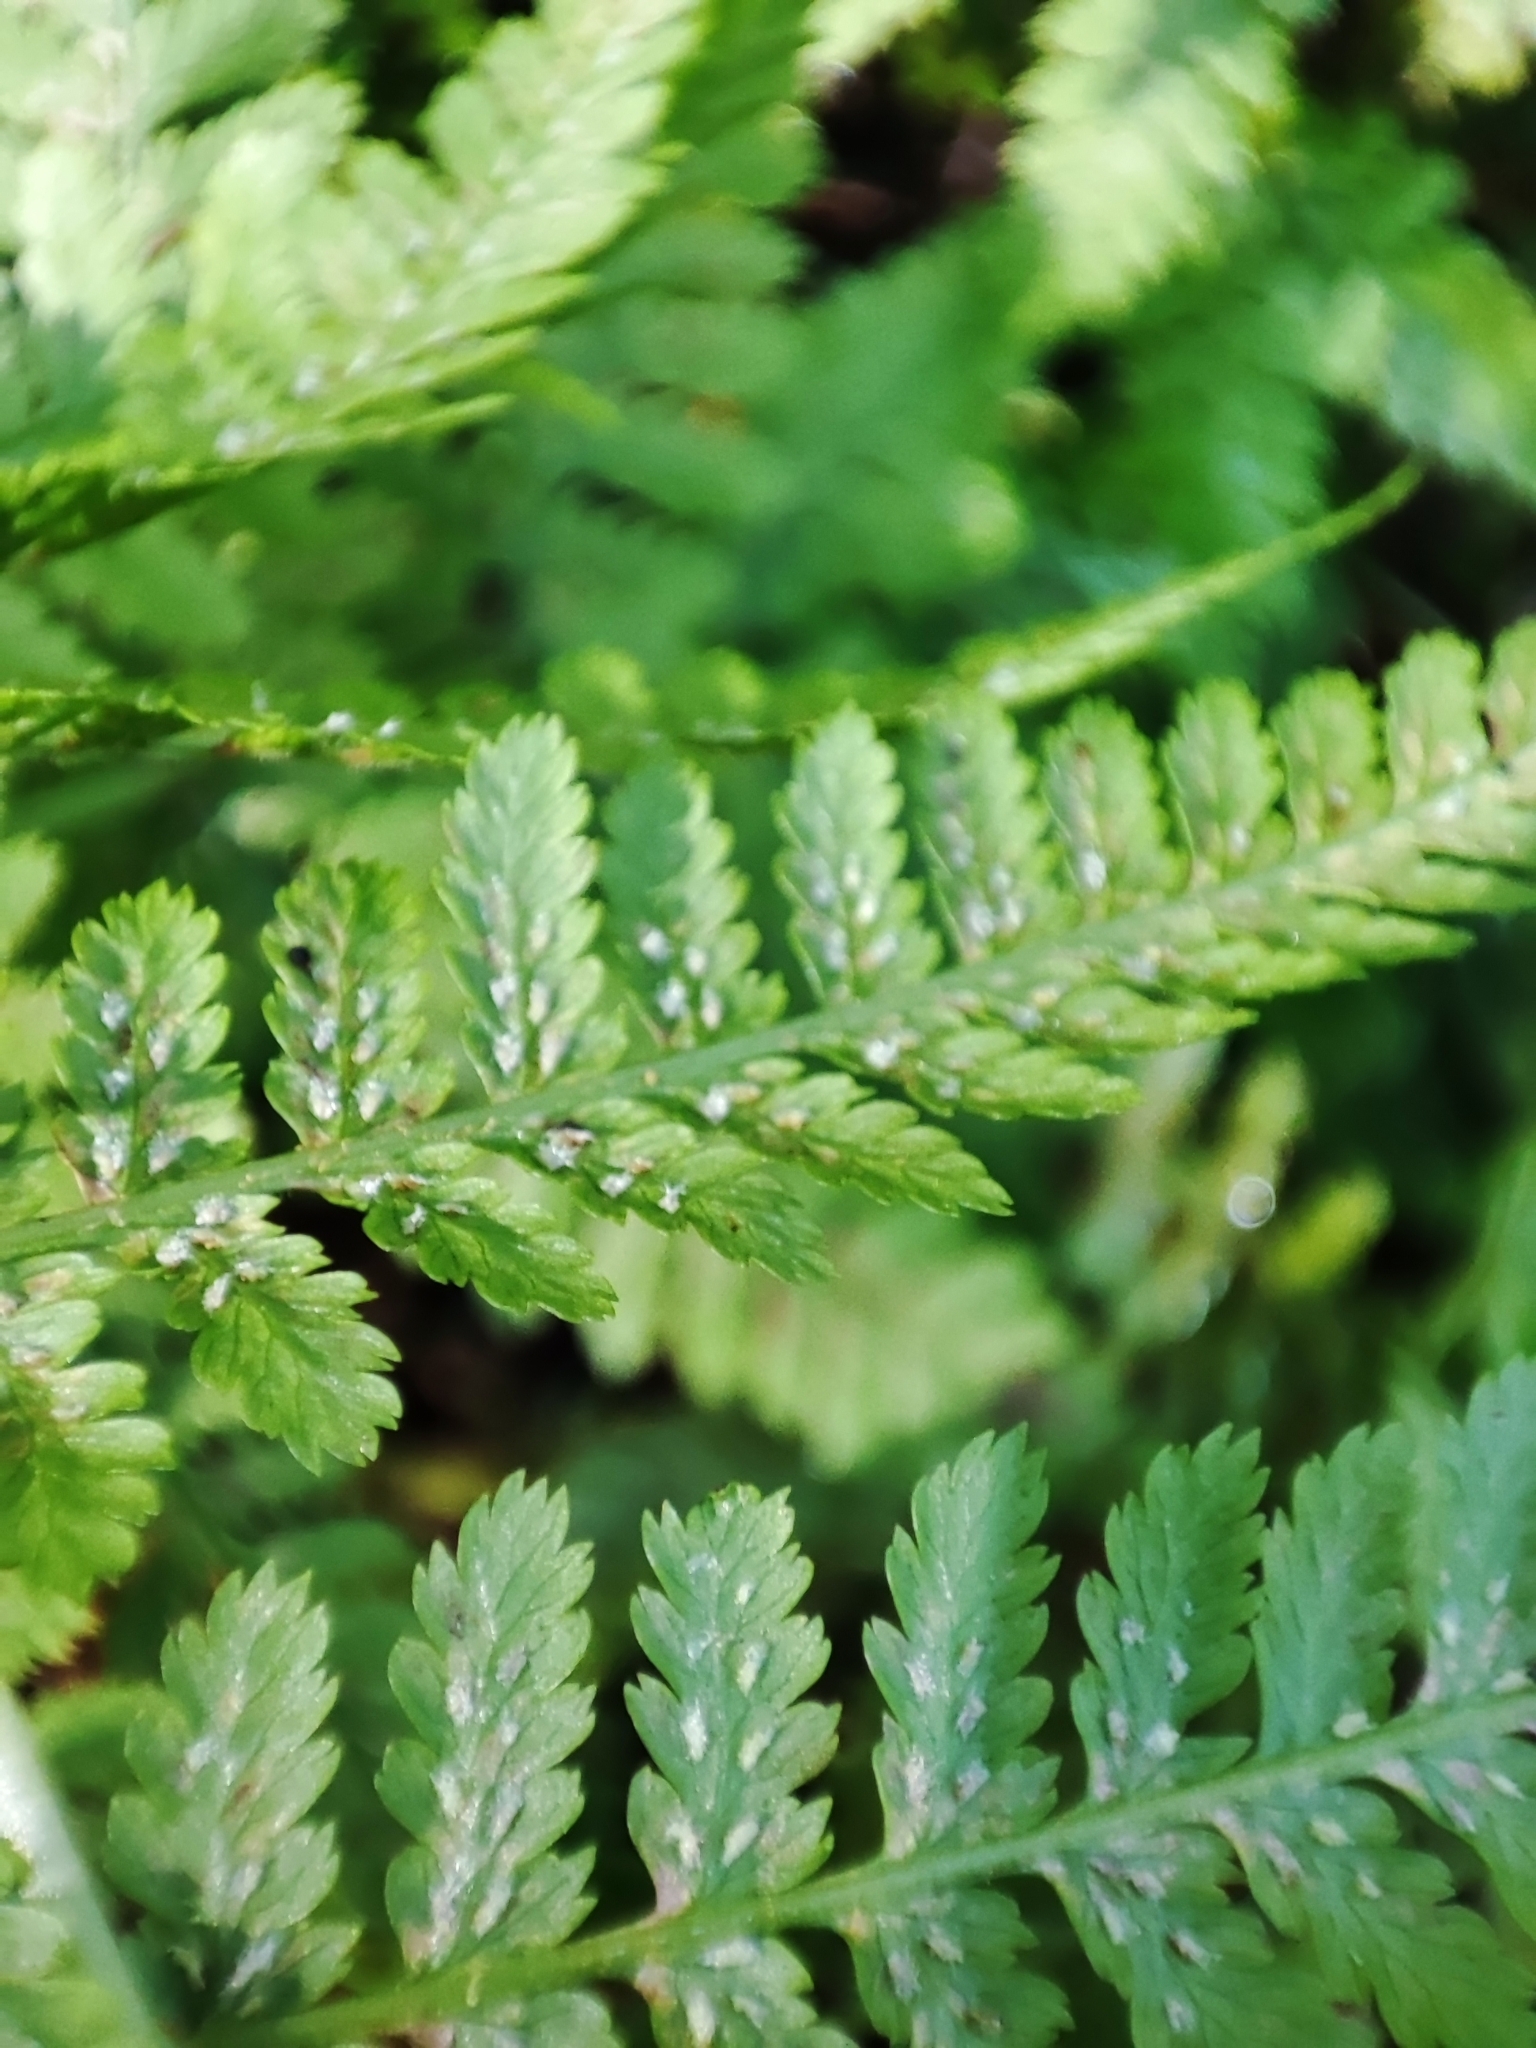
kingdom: Plantae
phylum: Tracheophyta
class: Polypodiopsida
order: Polypodiales
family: Athyriaceae
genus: Athyrium
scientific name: Athyrium filix-femina
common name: Lady fern
